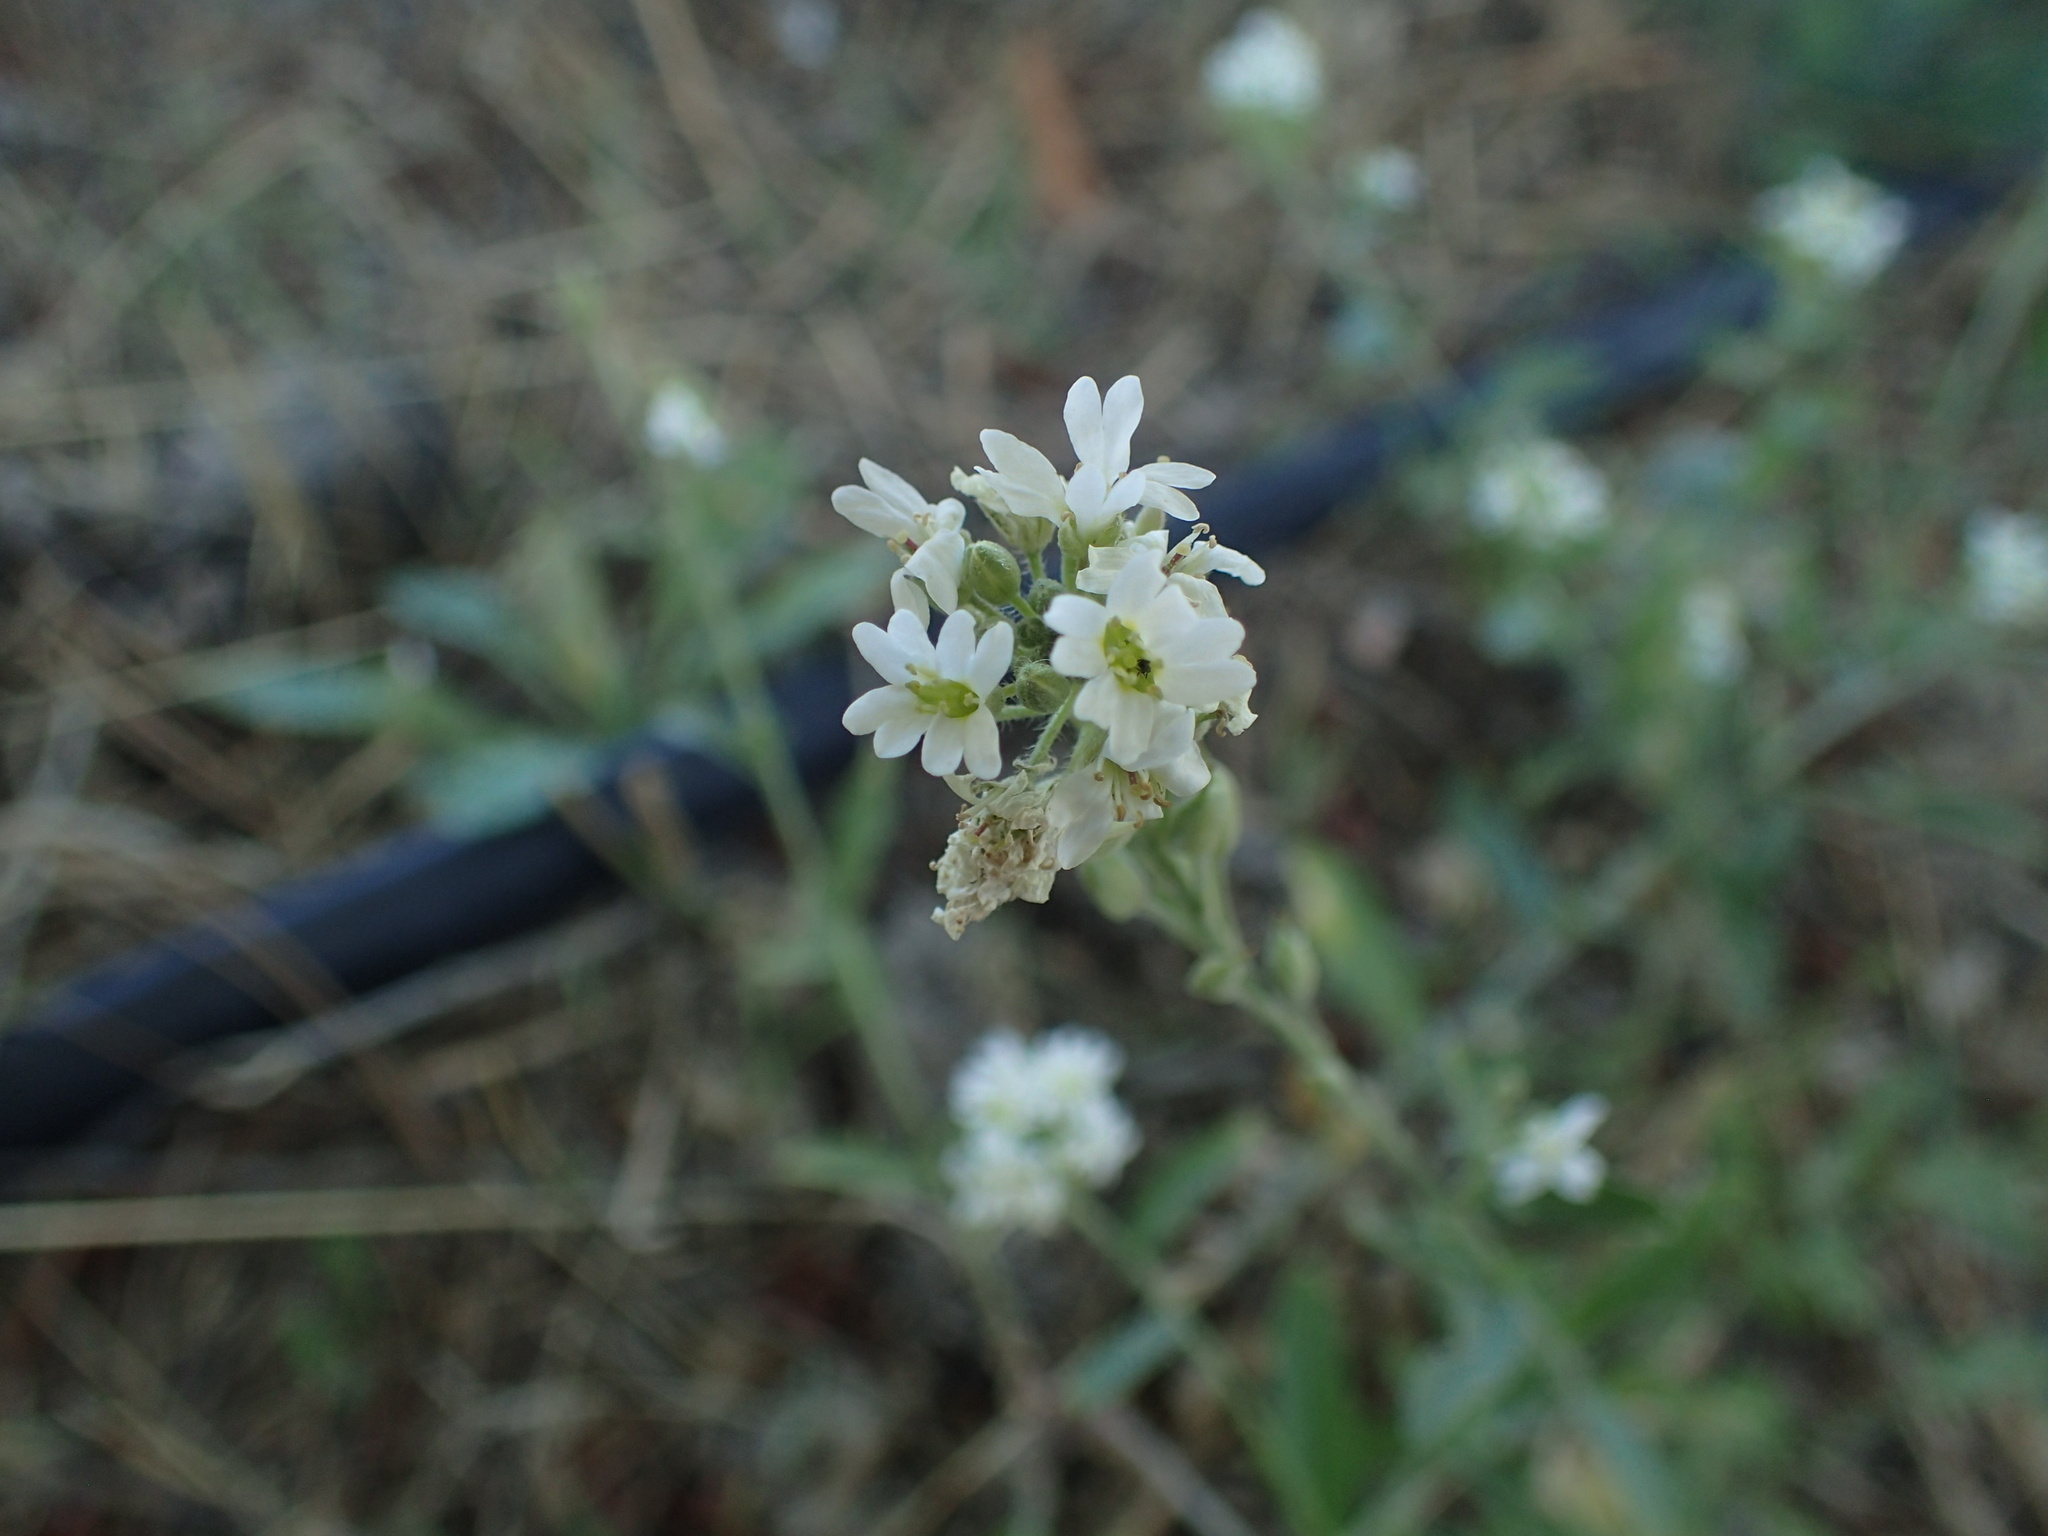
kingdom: Plantae
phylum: Tracheophyta
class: Magnoliopsida
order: Brassicales
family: Brassicaceae
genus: Berteroa
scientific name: Berteroa incana
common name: Hoary alison
